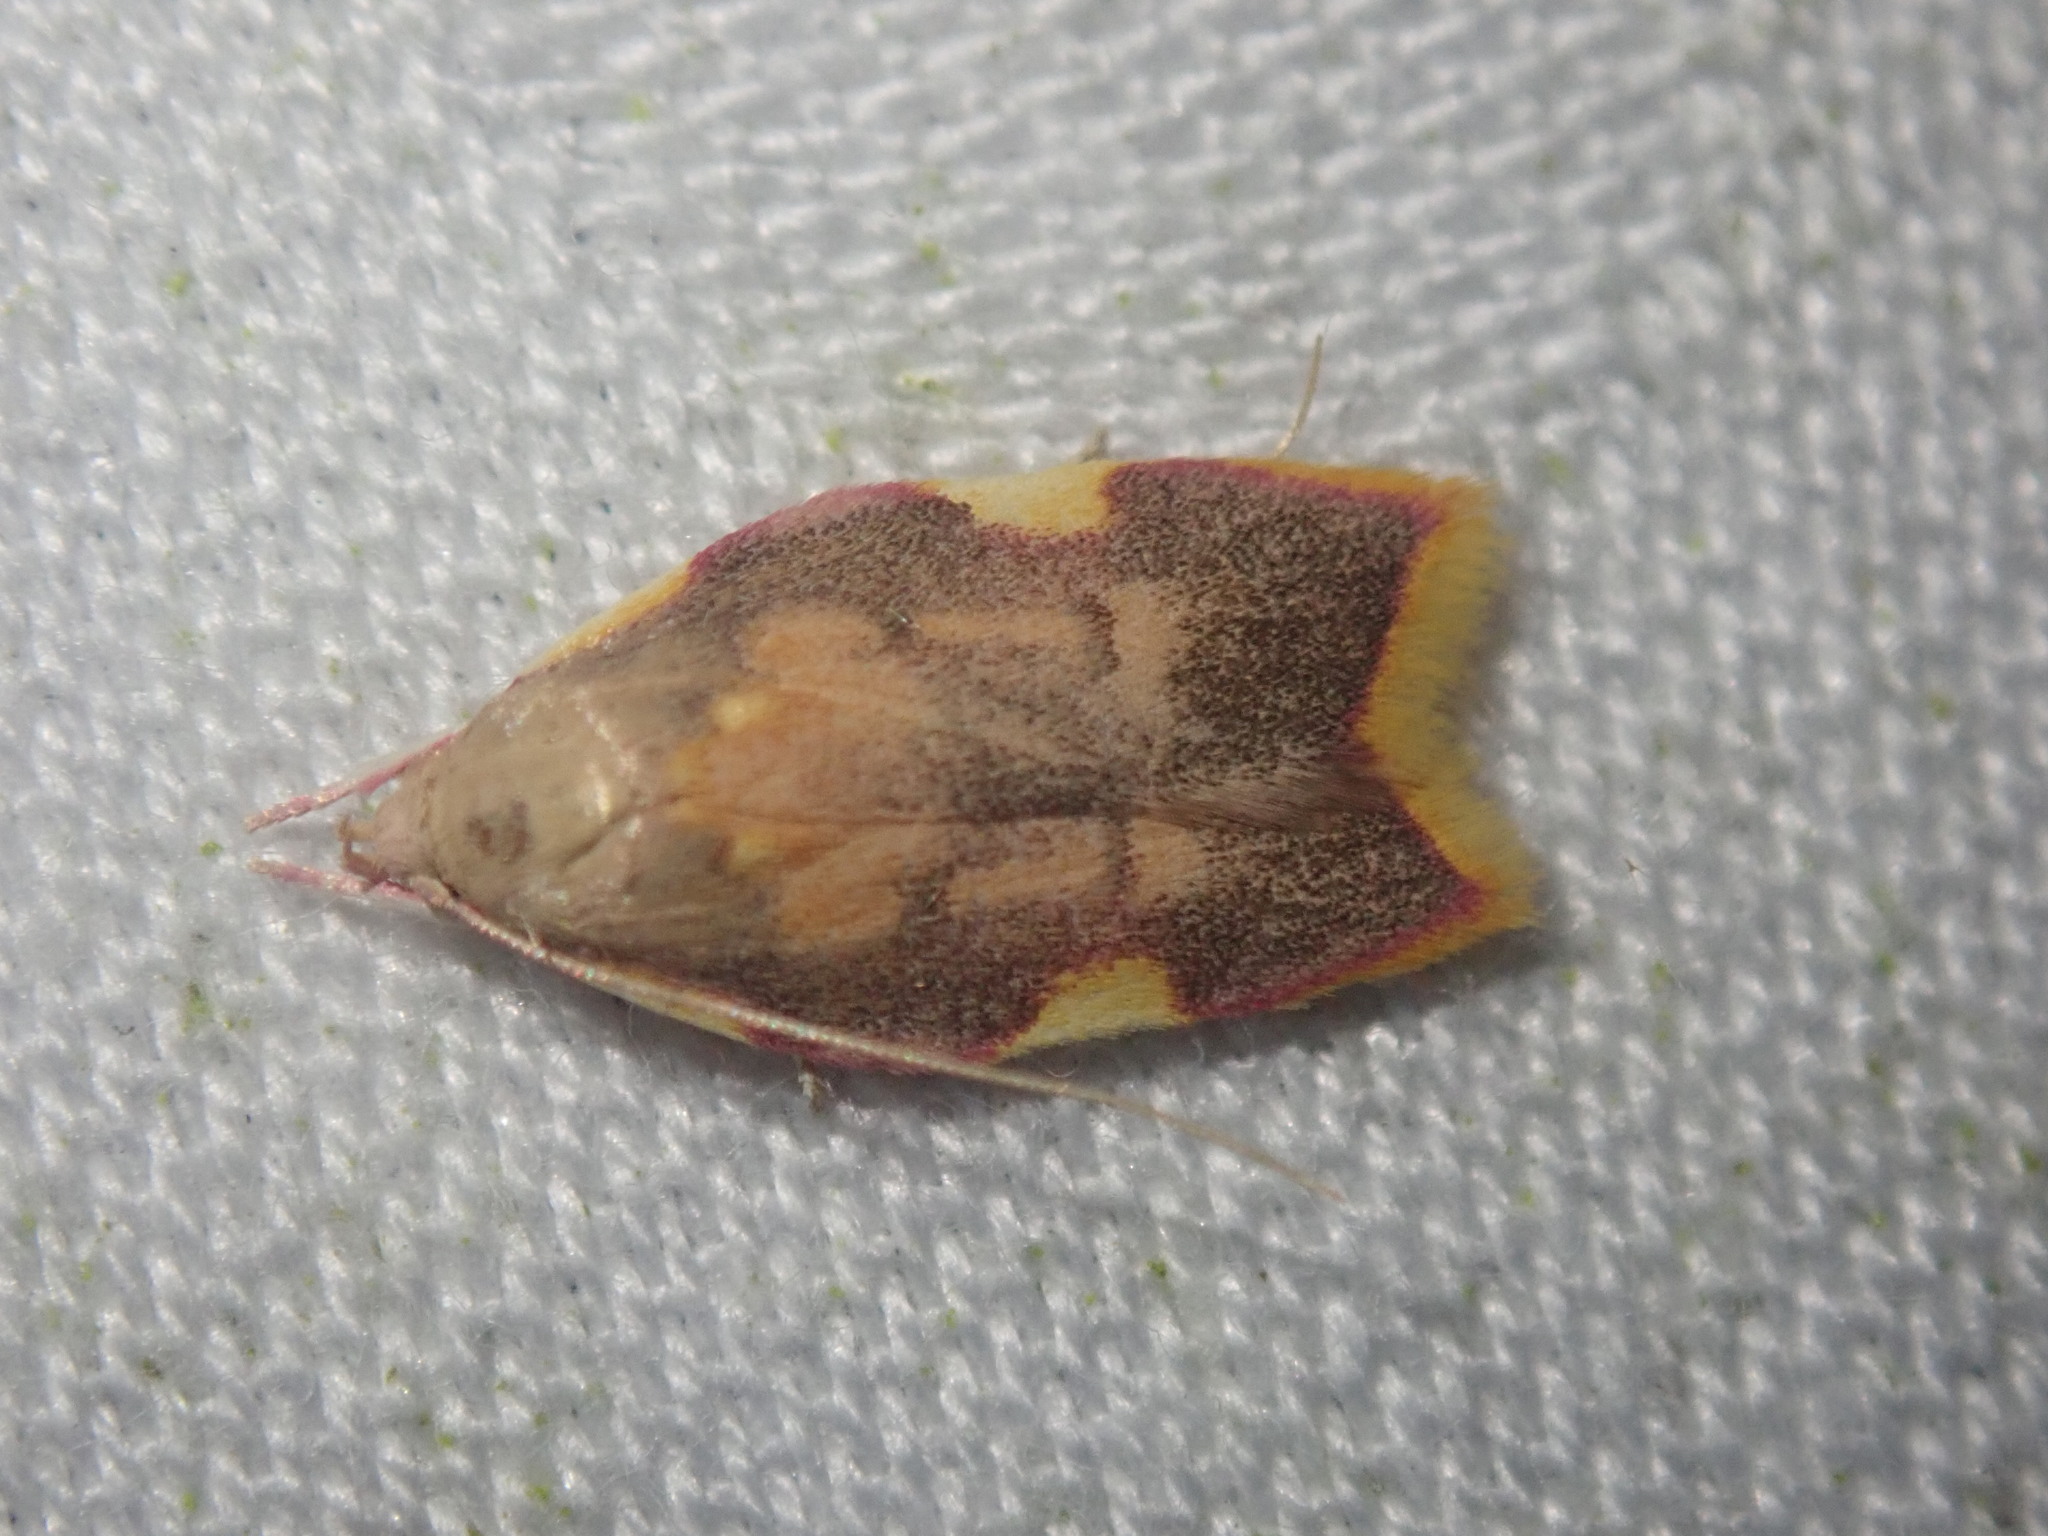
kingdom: Animalia
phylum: Arthropoda
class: Insecta
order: Lepidoptera
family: Peleopodidae
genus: Carcina
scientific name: Carcina quercana
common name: Moth
